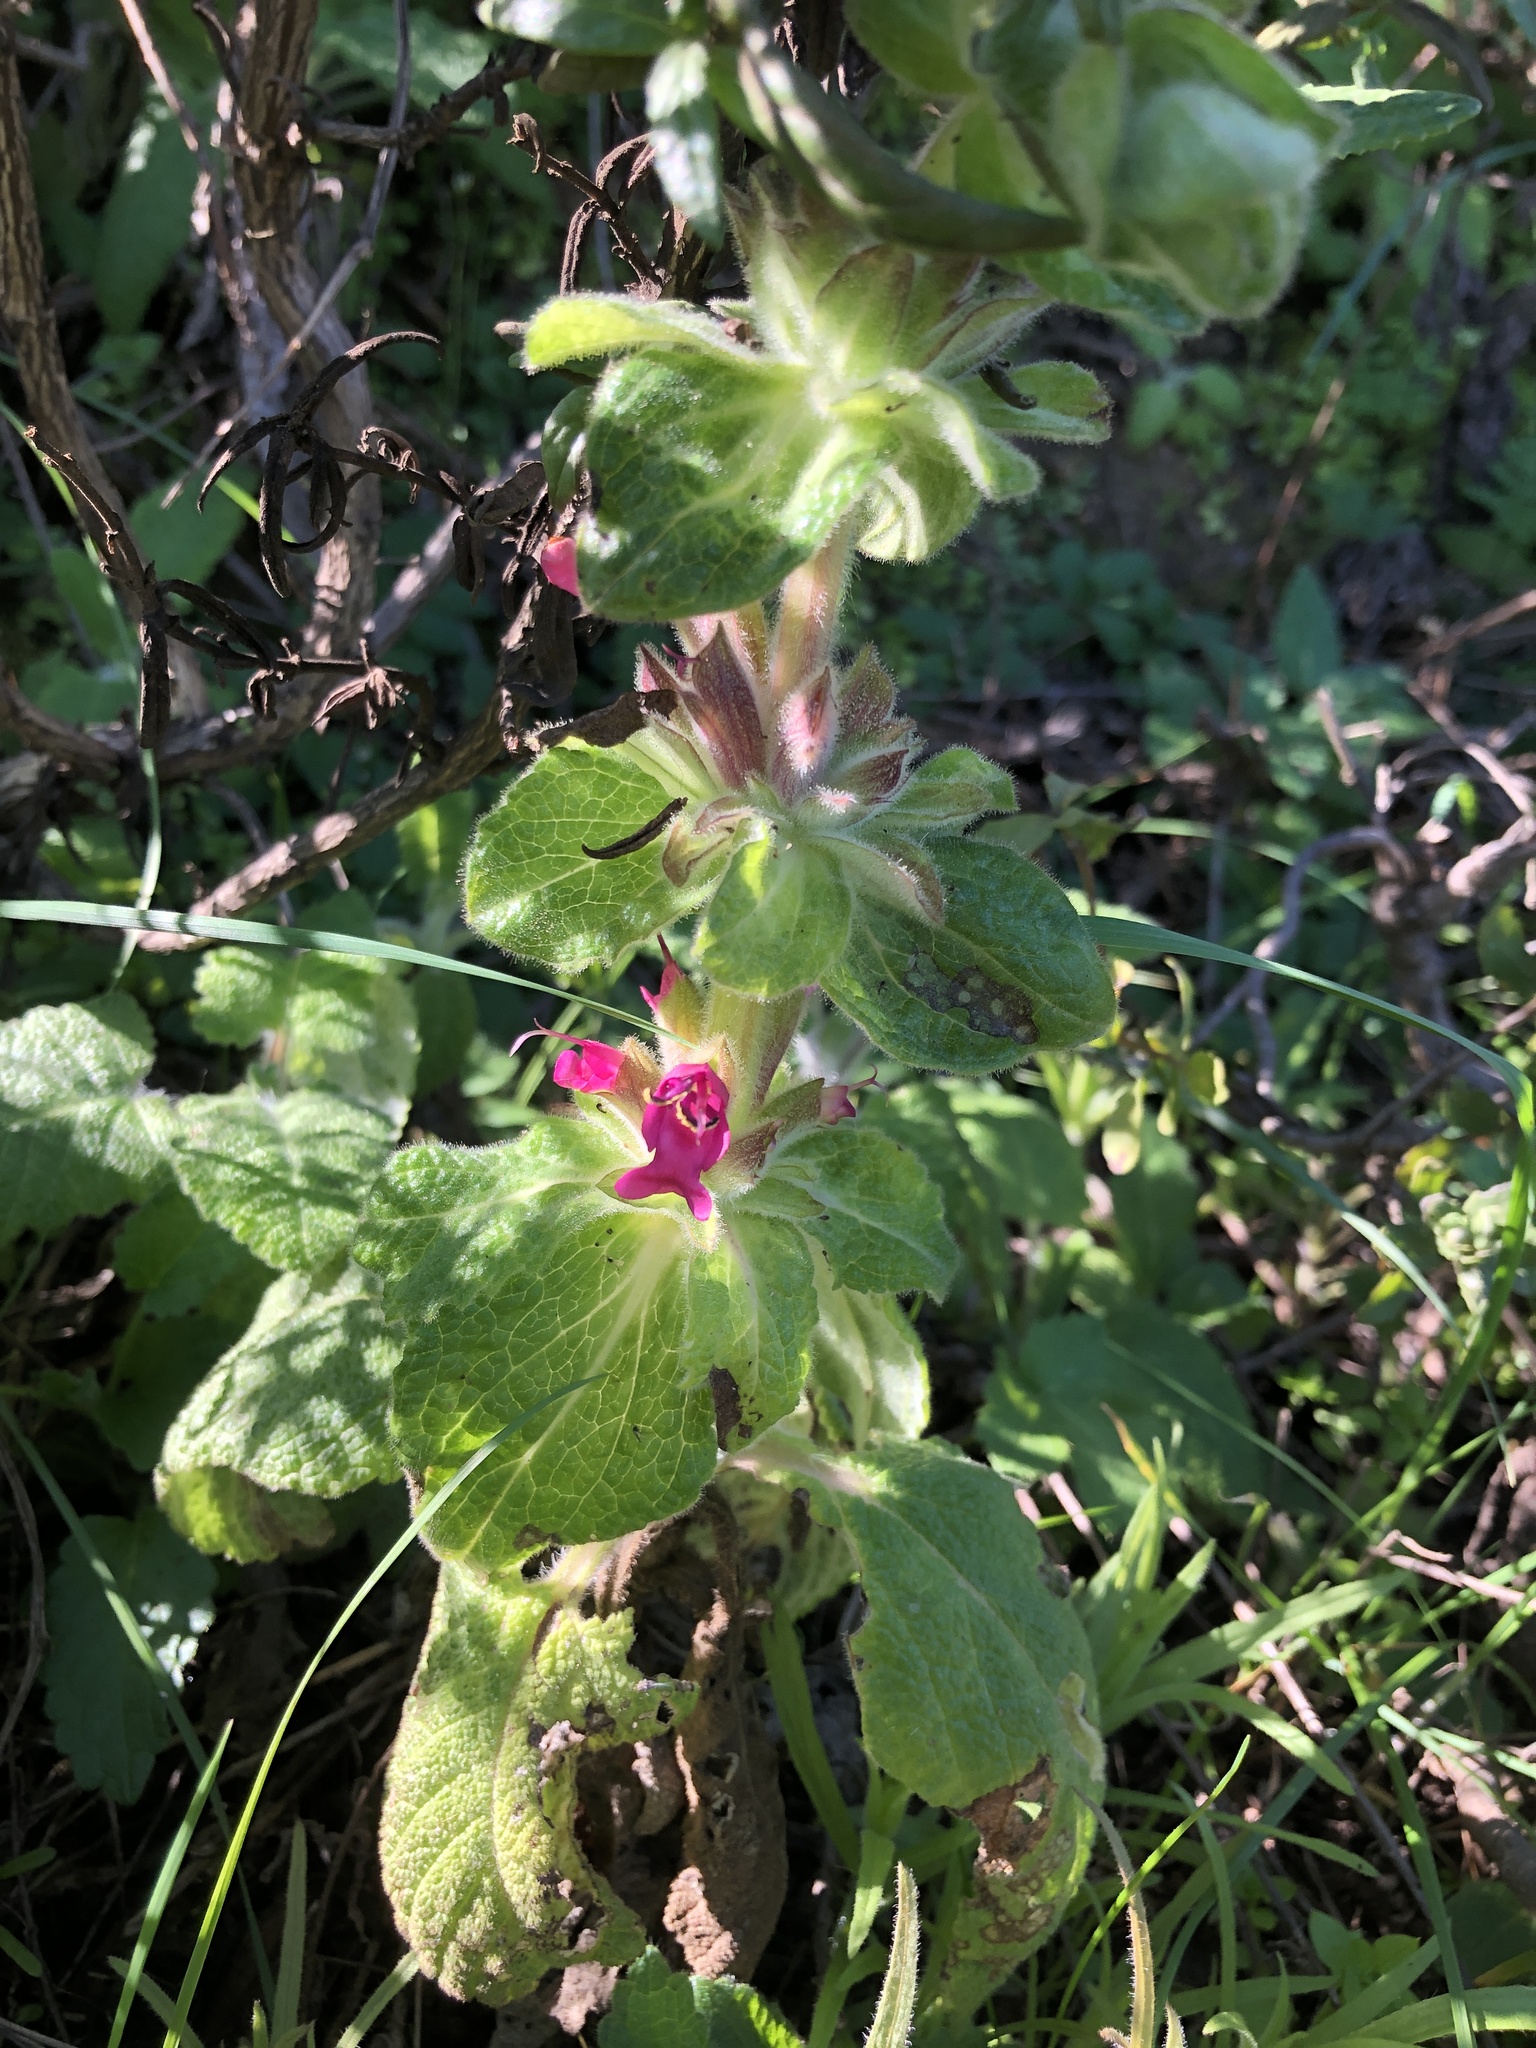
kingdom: Plantae
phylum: Tracheophyta
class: Magnoliopsida
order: Lamiales
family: Lamiaceae
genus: Salvia
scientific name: Salvia spathacea
